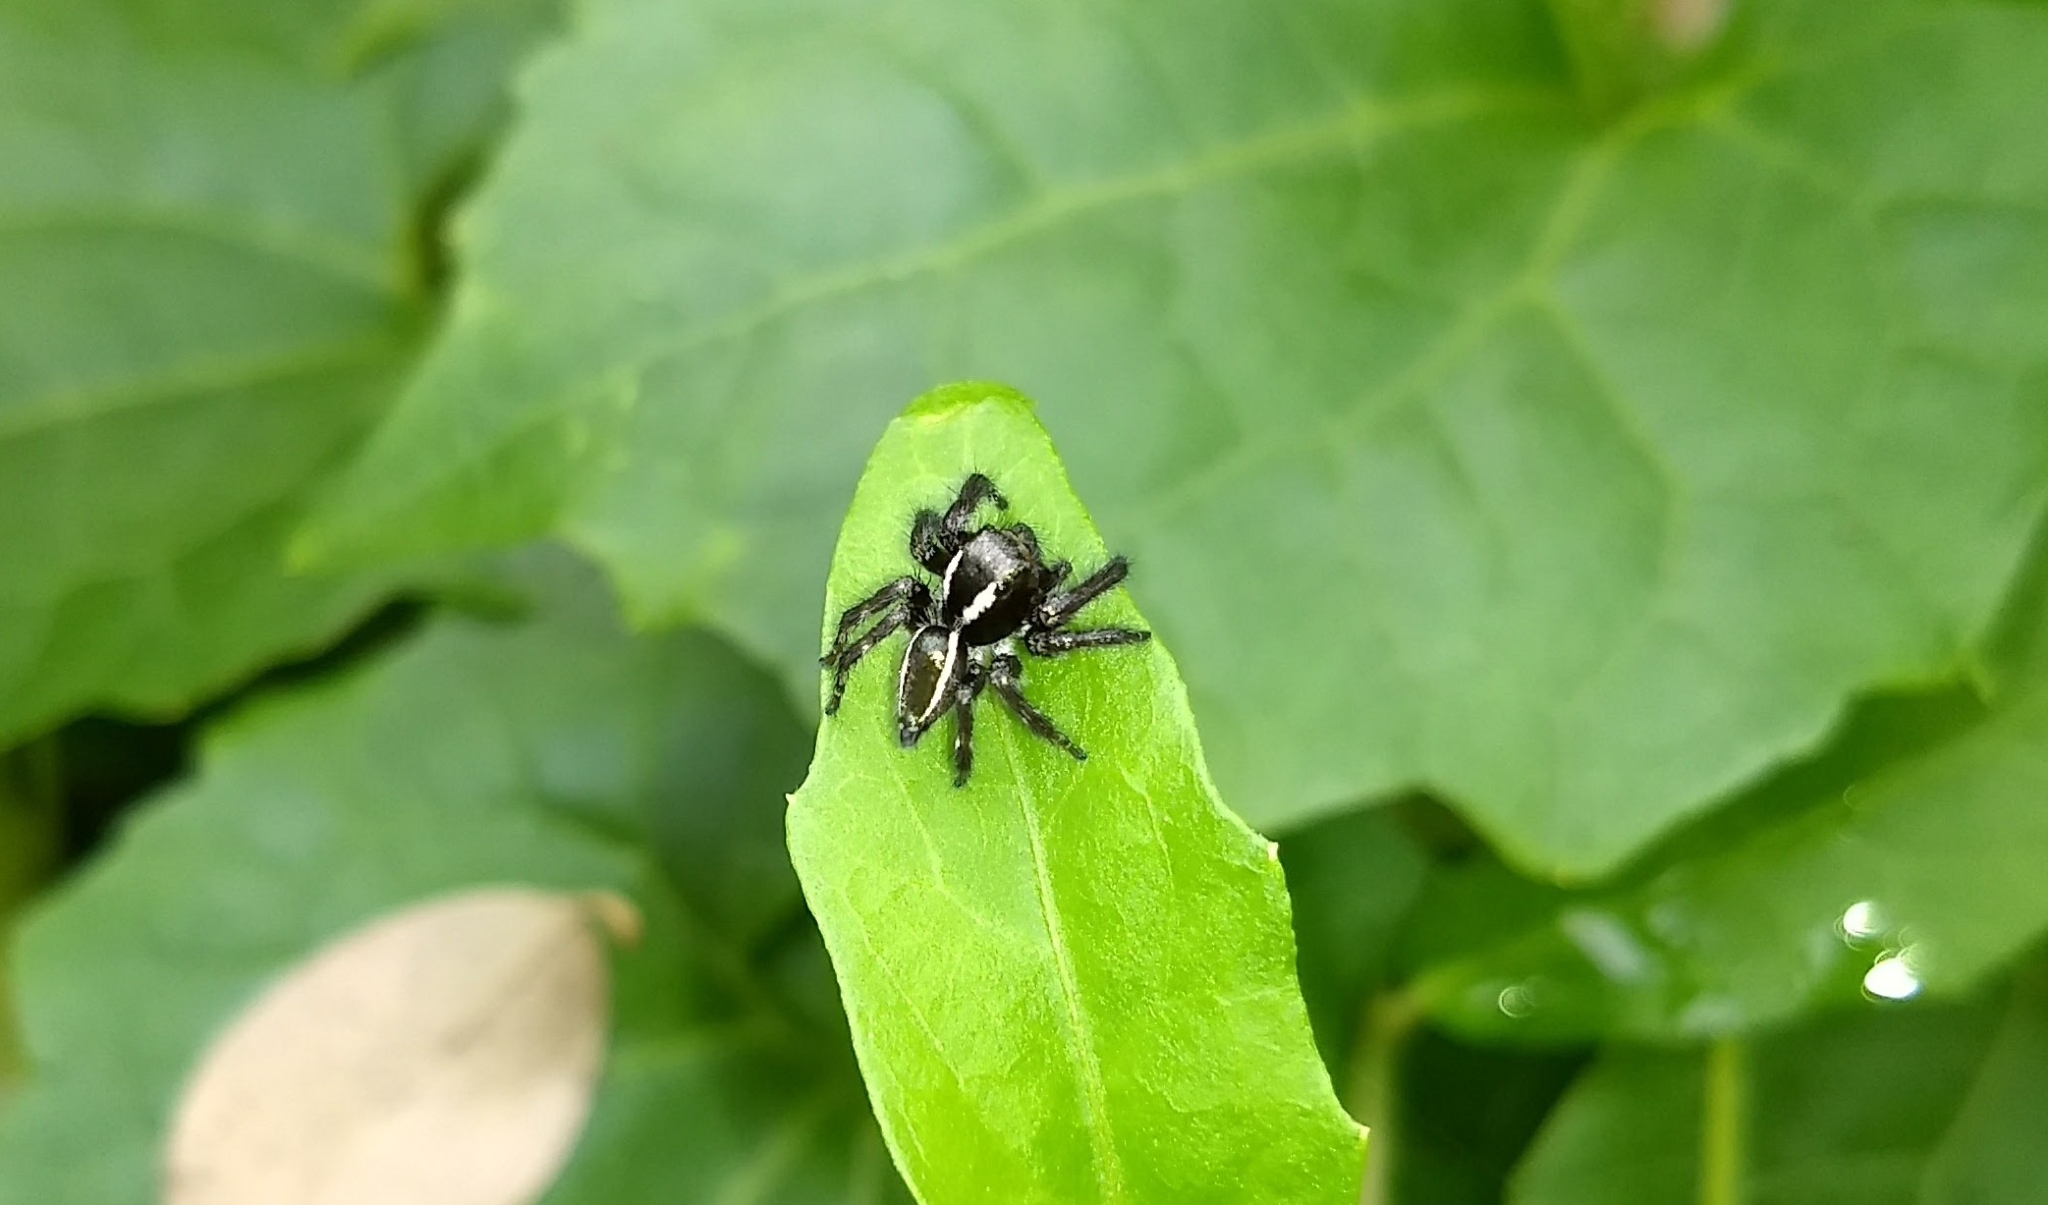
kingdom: Animalia
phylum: Arthropoda
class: Arachnida
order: Araneae
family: Salticidae
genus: Carrhotus
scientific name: Carrhotus viduus
